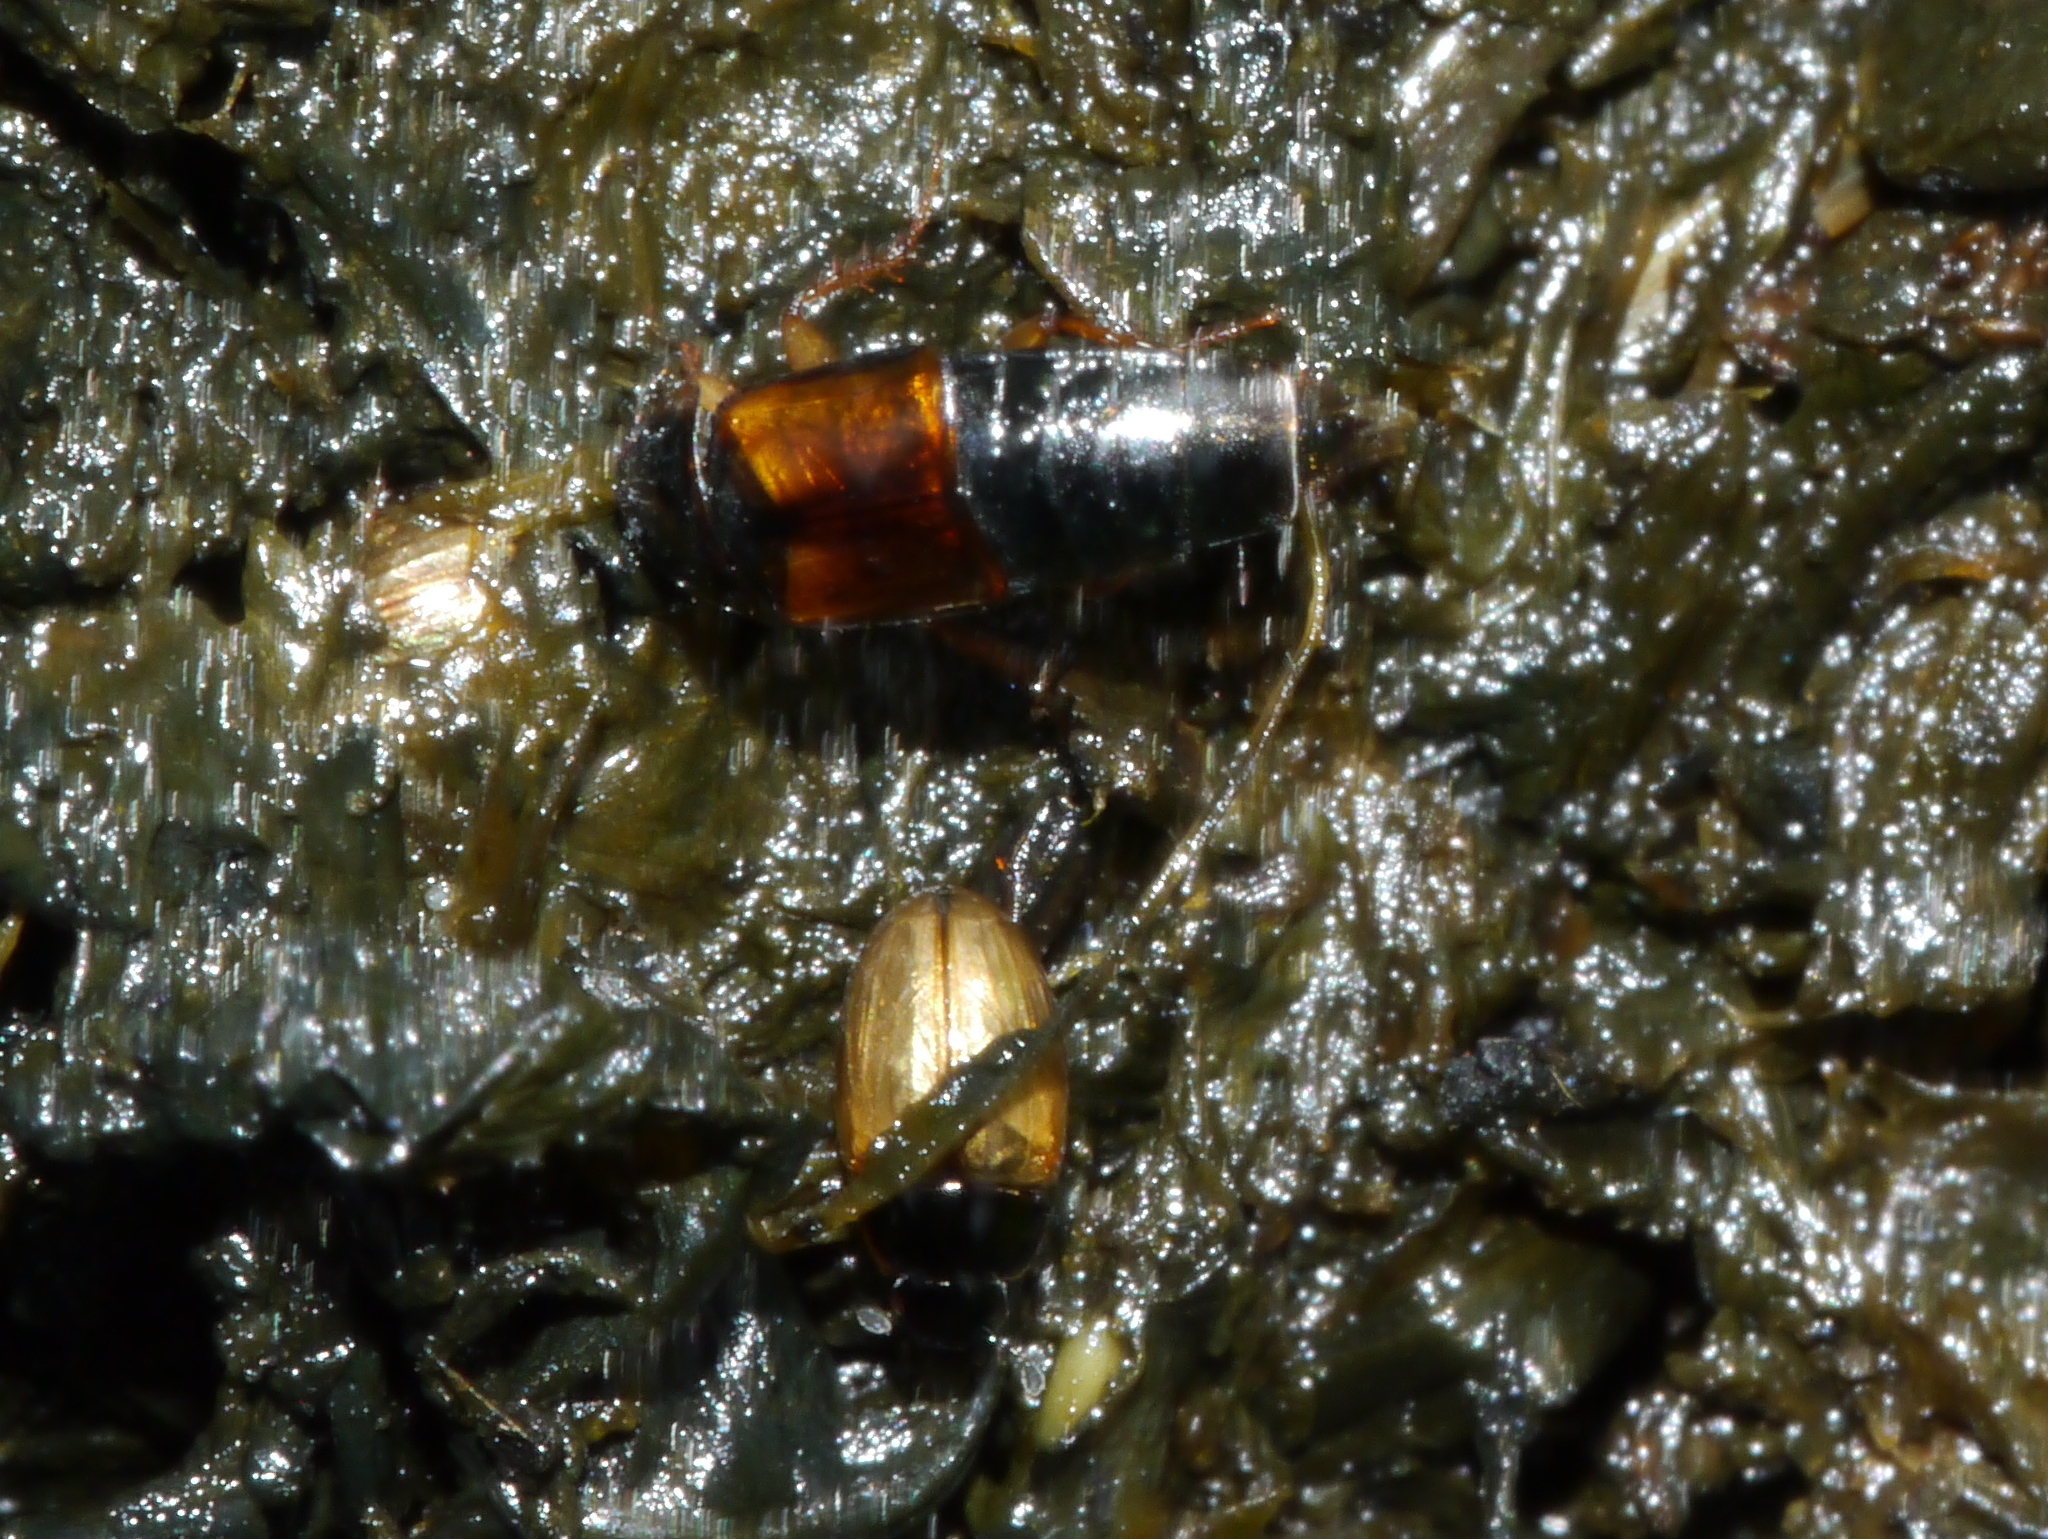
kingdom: Animalia
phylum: Arthropoda
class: Insecta
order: Coleoptera
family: Hydrophilidae
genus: Cercyon
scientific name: Cercyon
